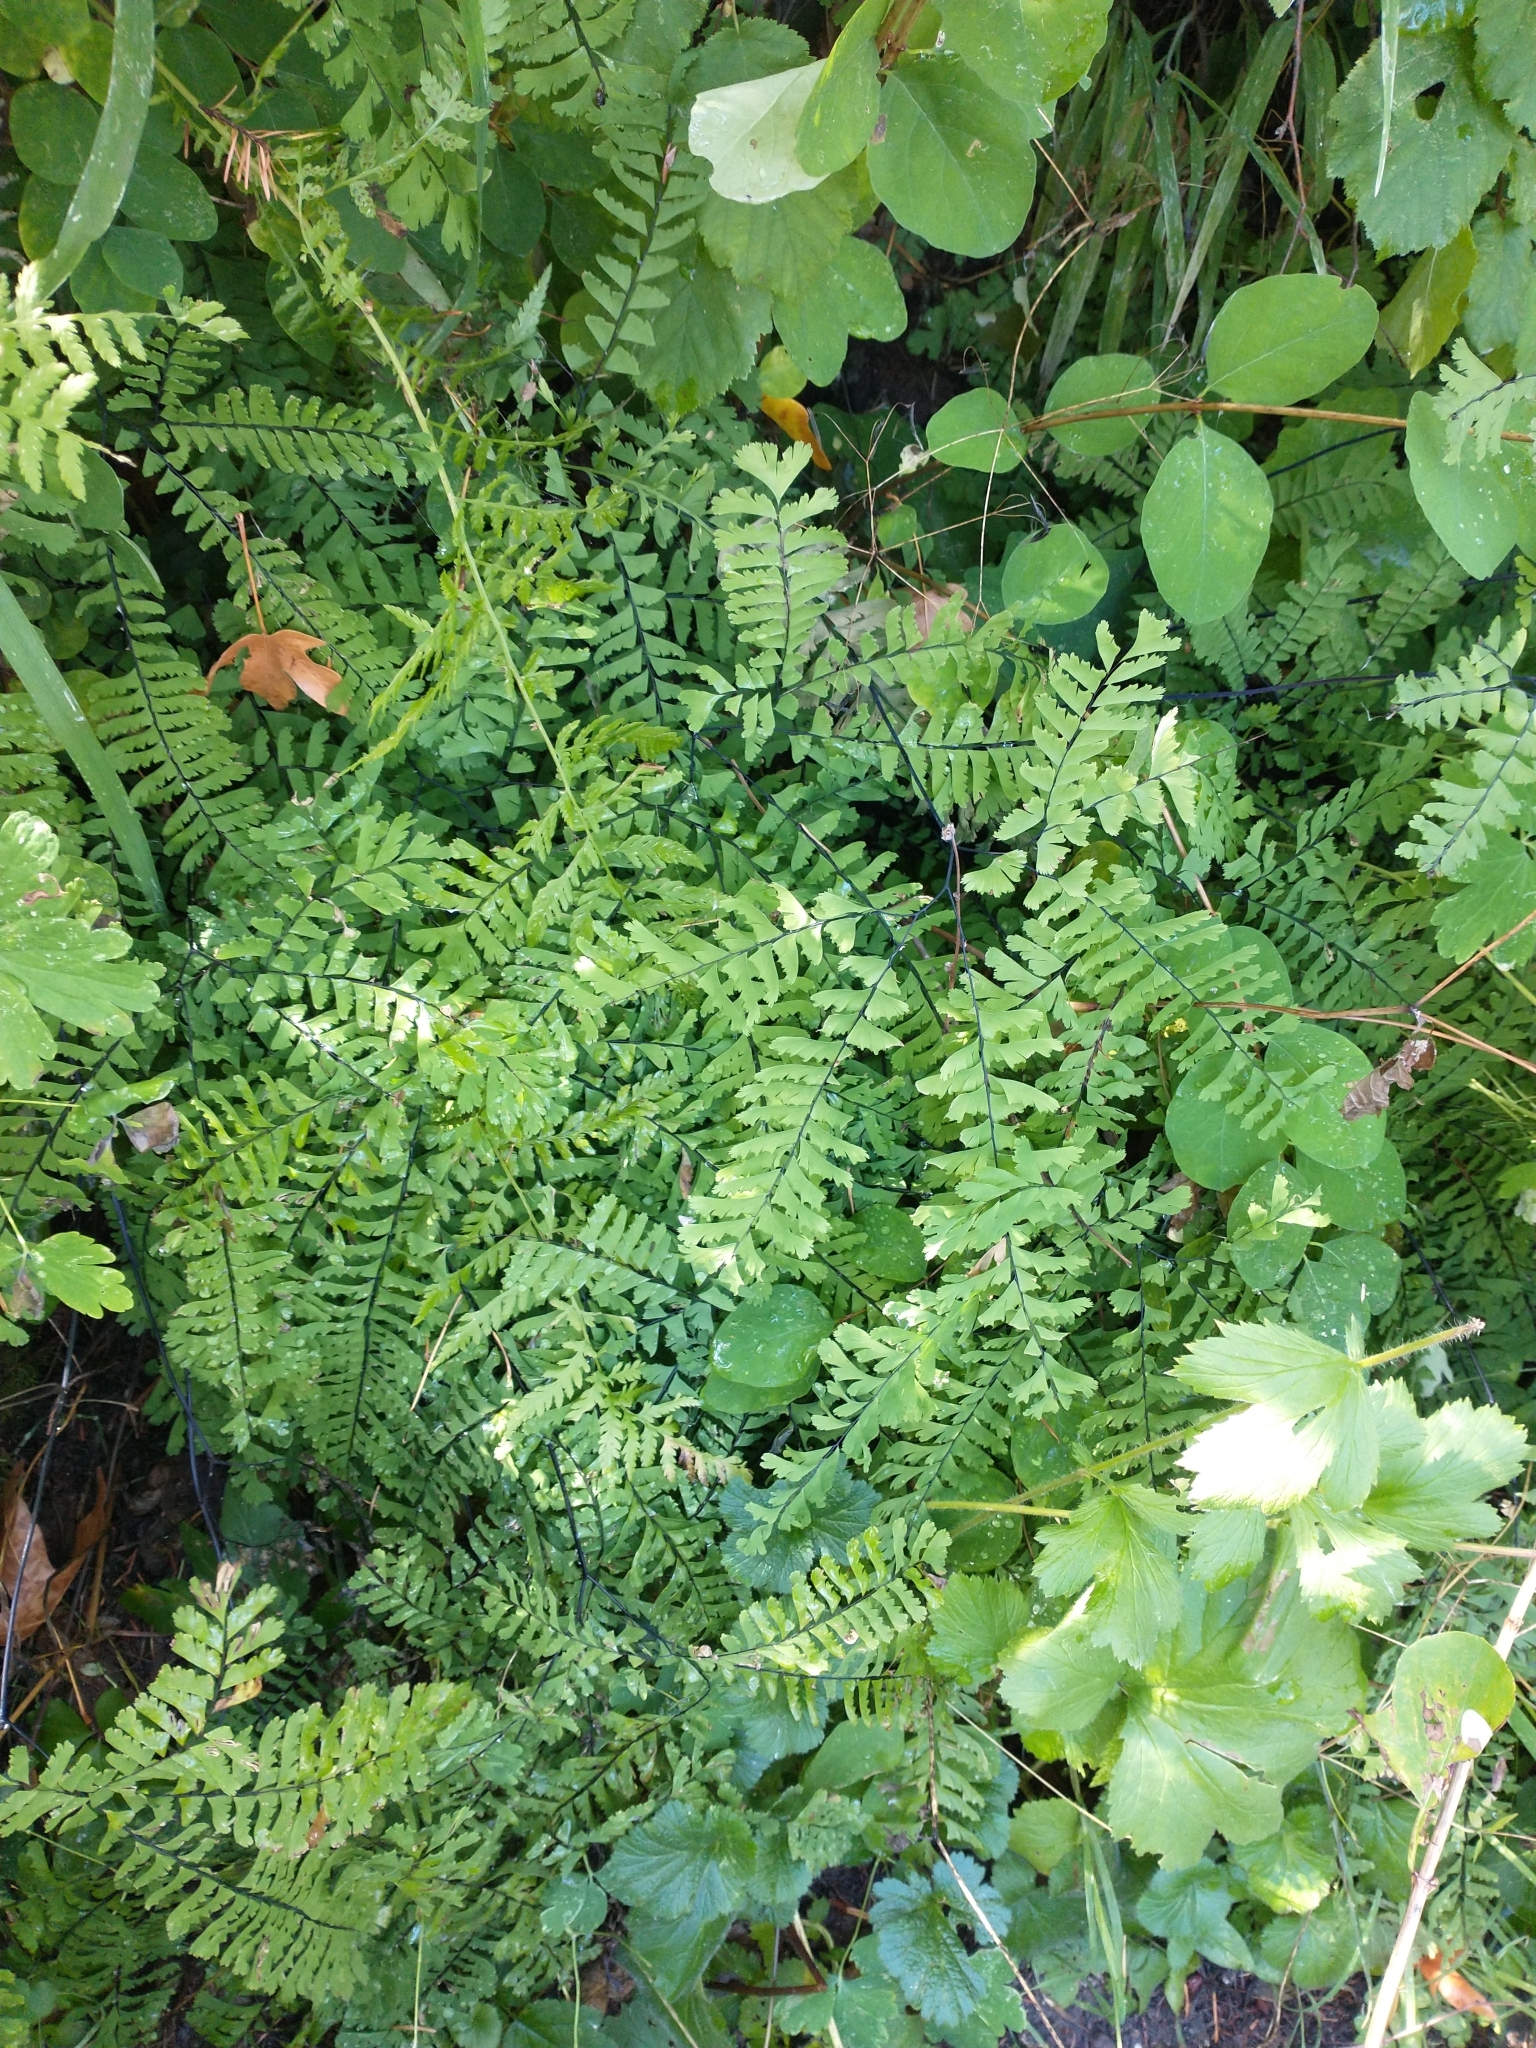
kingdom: Plantae
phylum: Tracheophyta
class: Polypodiopsida
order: Polypodiales
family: Pteridaceae
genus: Adiantum
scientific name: Adiantum aleuticum
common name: Aleutian maidenhair fern
